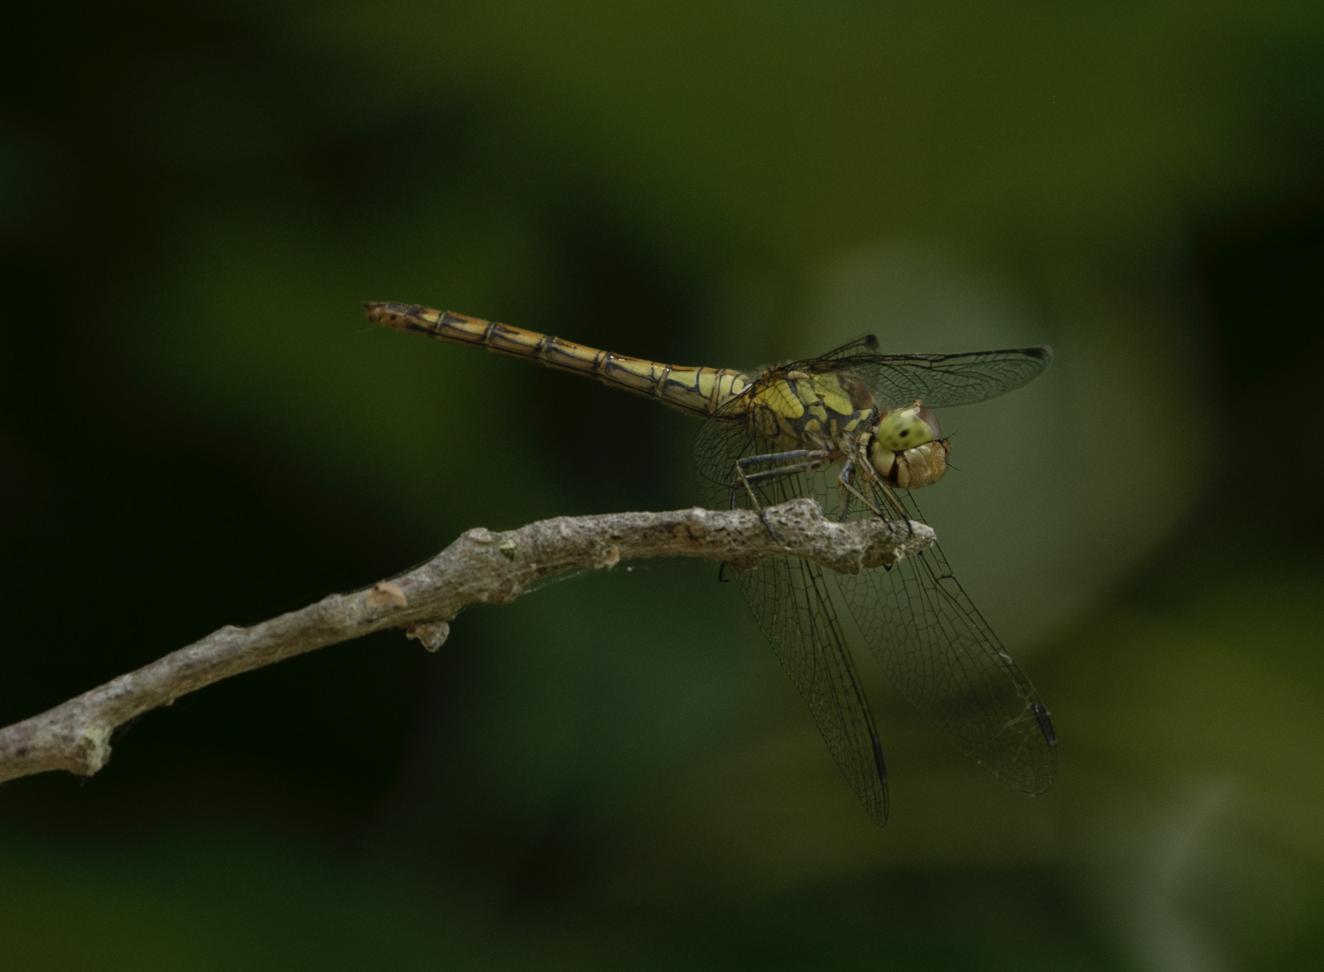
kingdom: Animalia
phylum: Arthropoda
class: Insecta
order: Odonata
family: Libellulidae
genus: Sympetrum
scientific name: Sympetrum striolatum
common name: Common darter
